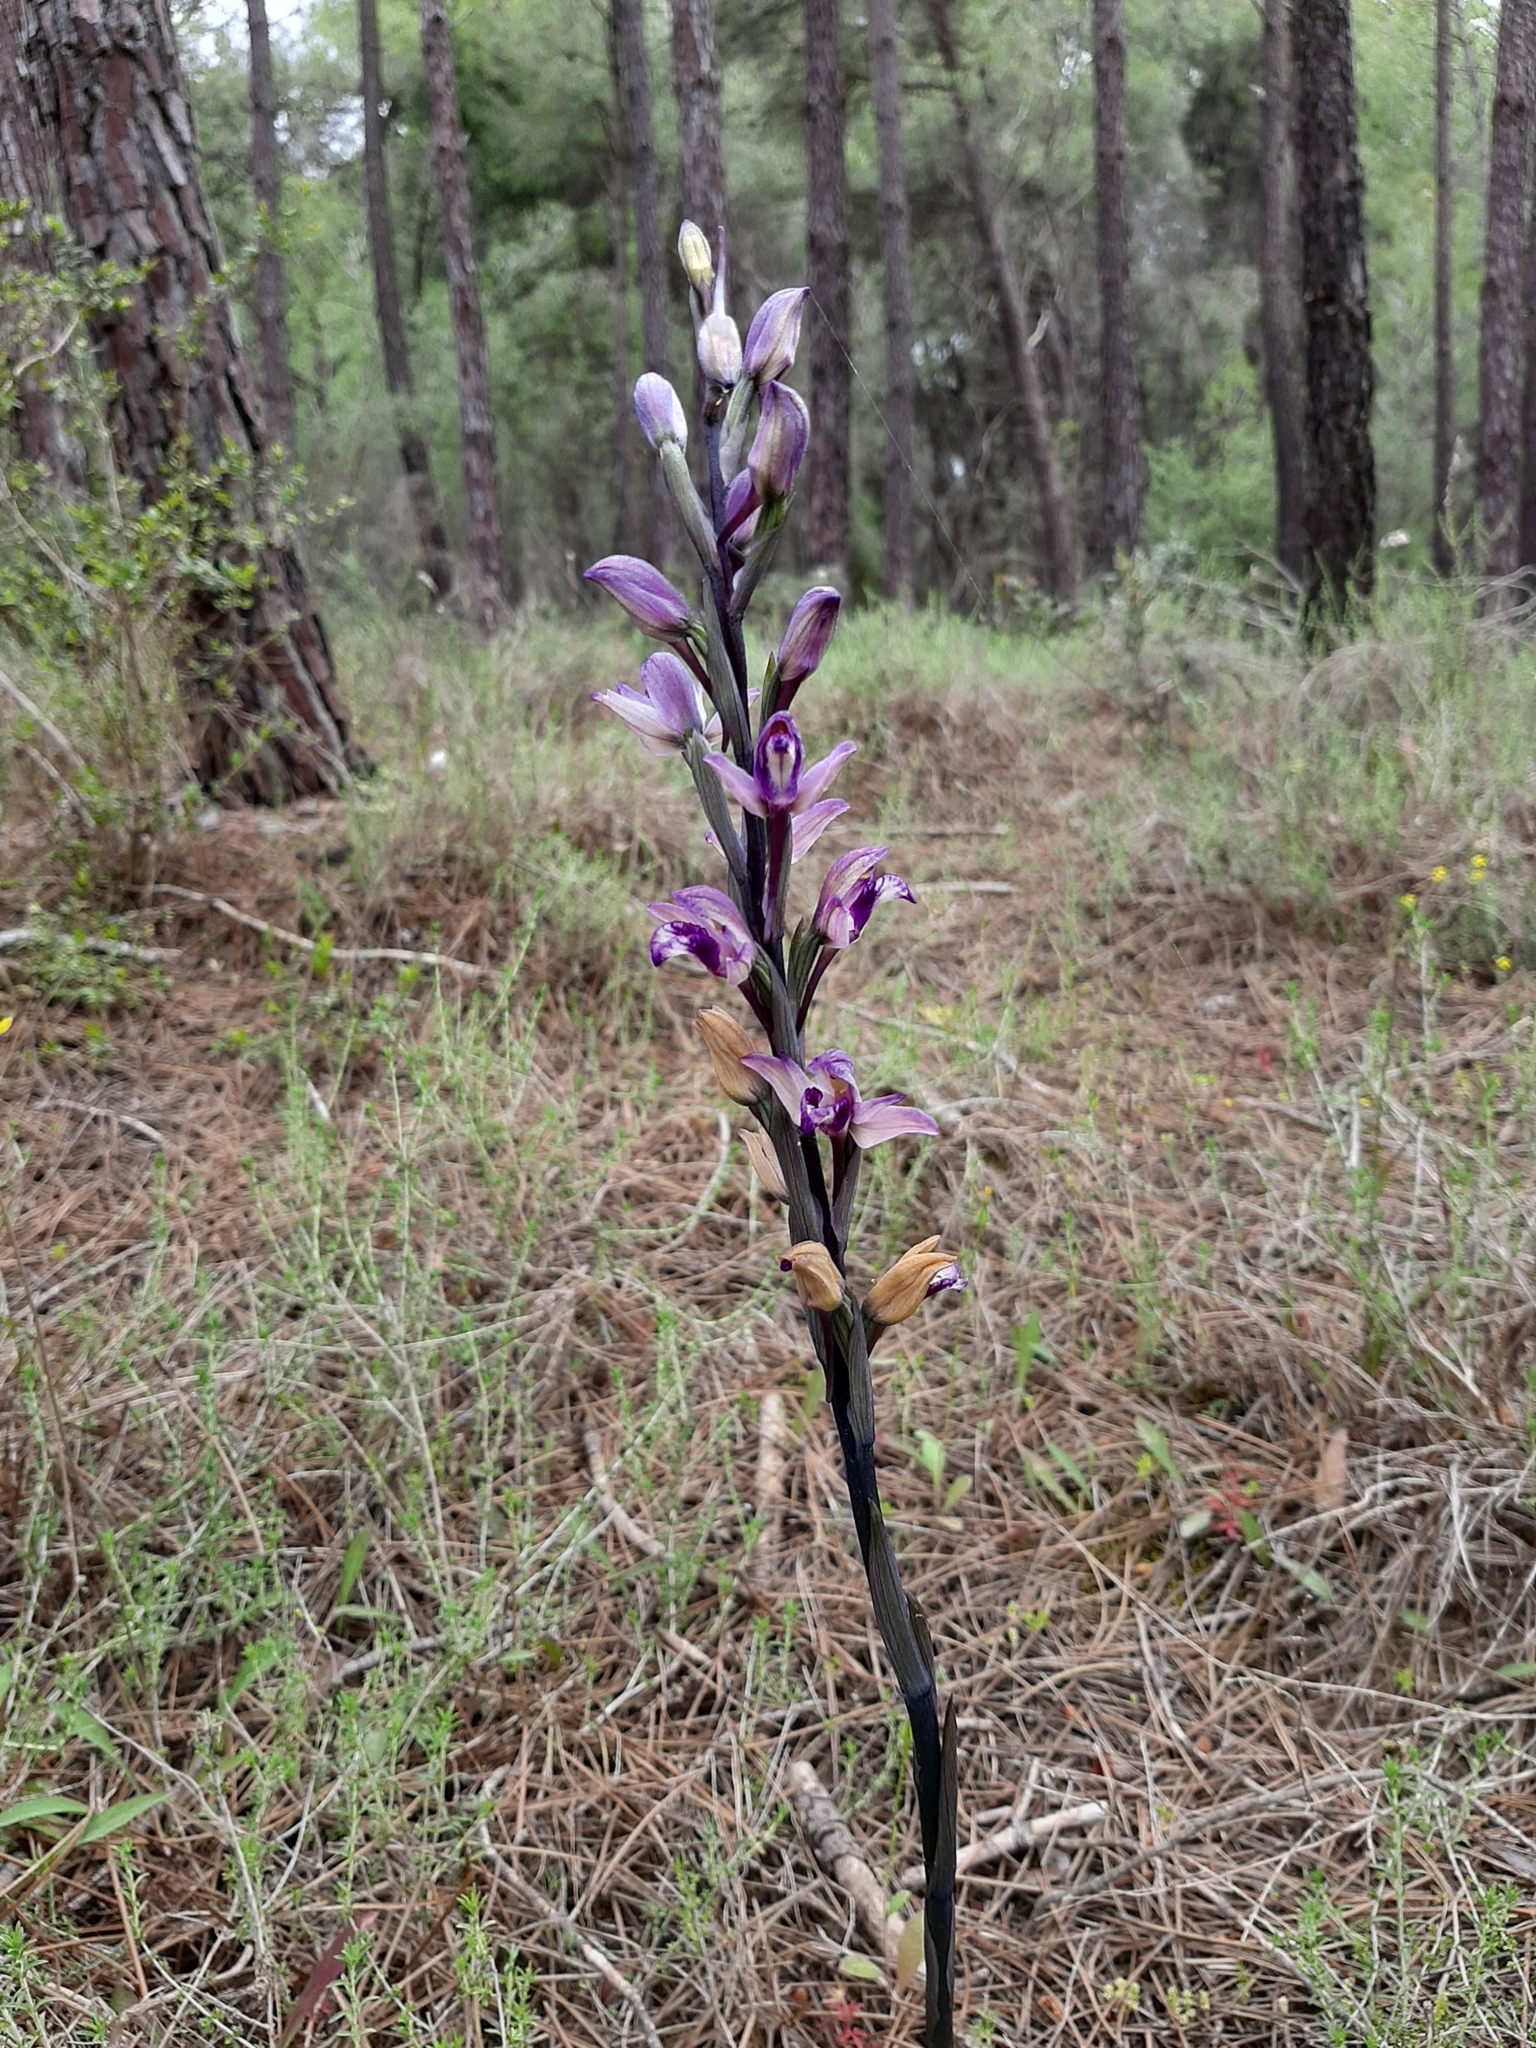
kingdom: Plantae
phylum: Tracheophyta
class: Liliopsida
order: Asparagales
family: Orchidaceae
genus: Limodorum
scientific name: Limodorum abortivum
